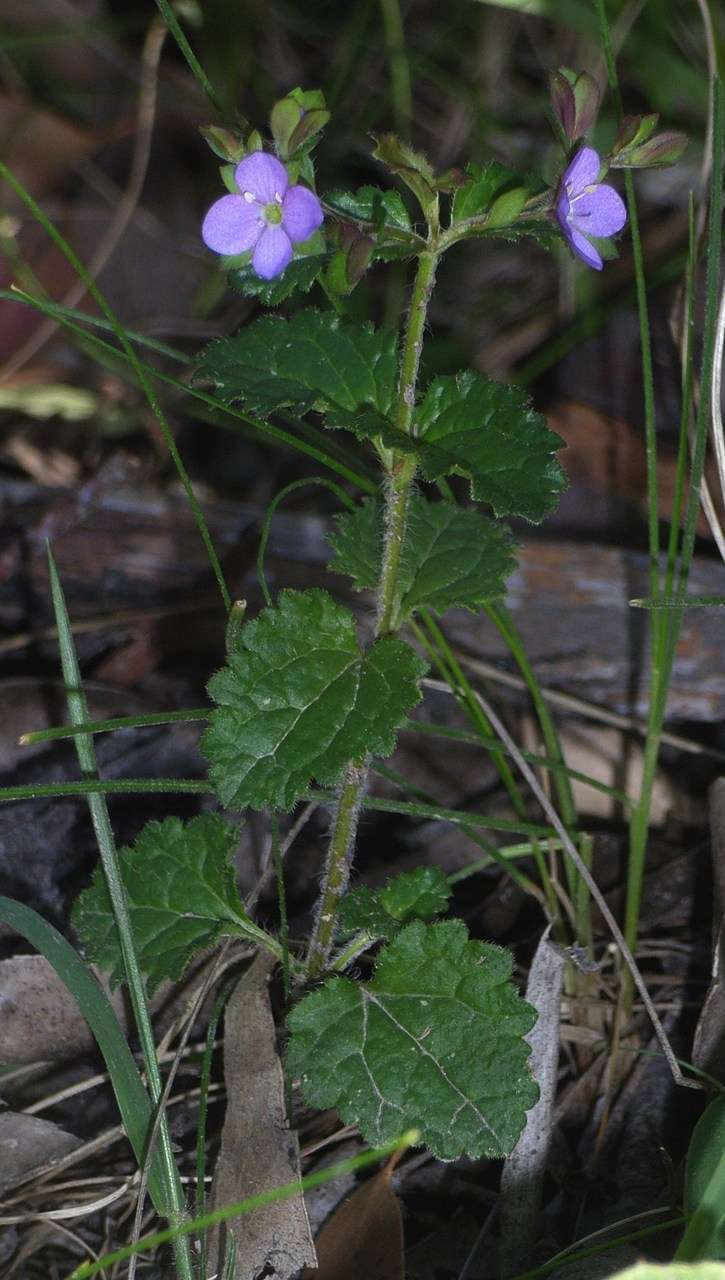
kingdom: Plantae
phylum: Tracheophyta
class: Magnoliopsida
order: Lamiales
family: Plantaginaceae
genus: Veronica
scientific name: Veronica calycina
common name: Cup speedwell
